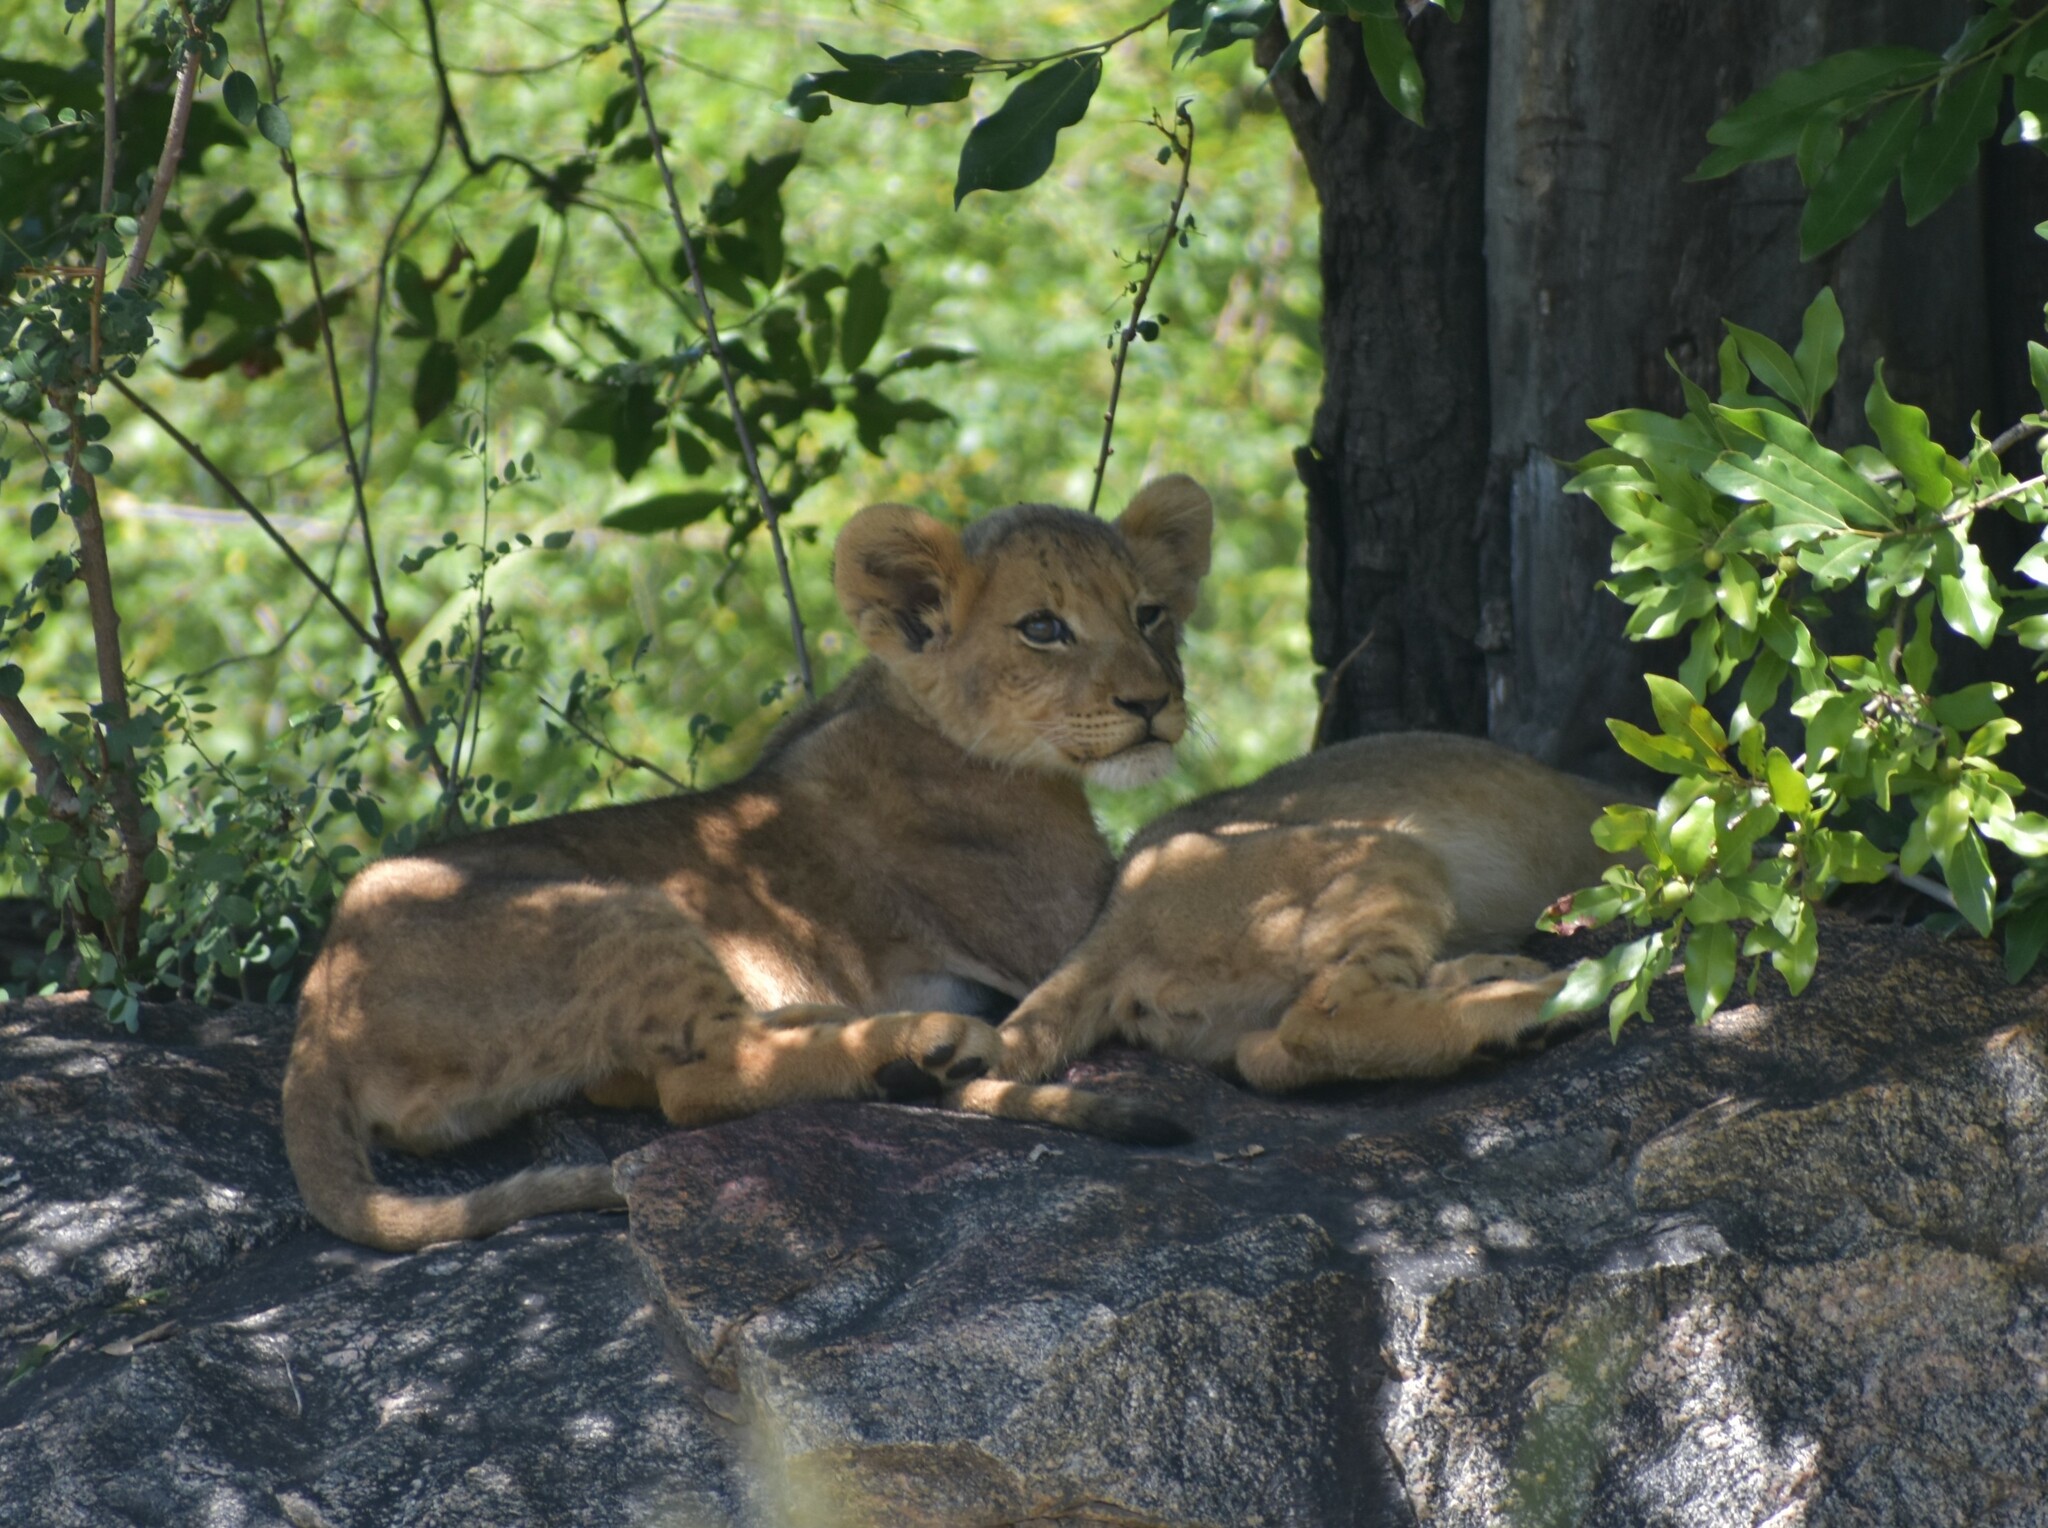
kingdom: Animalia
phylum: Chordata
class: Mammalia
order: Carnivora
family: Felidae
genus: Panthera
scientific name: Panthera leo
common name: Lion
